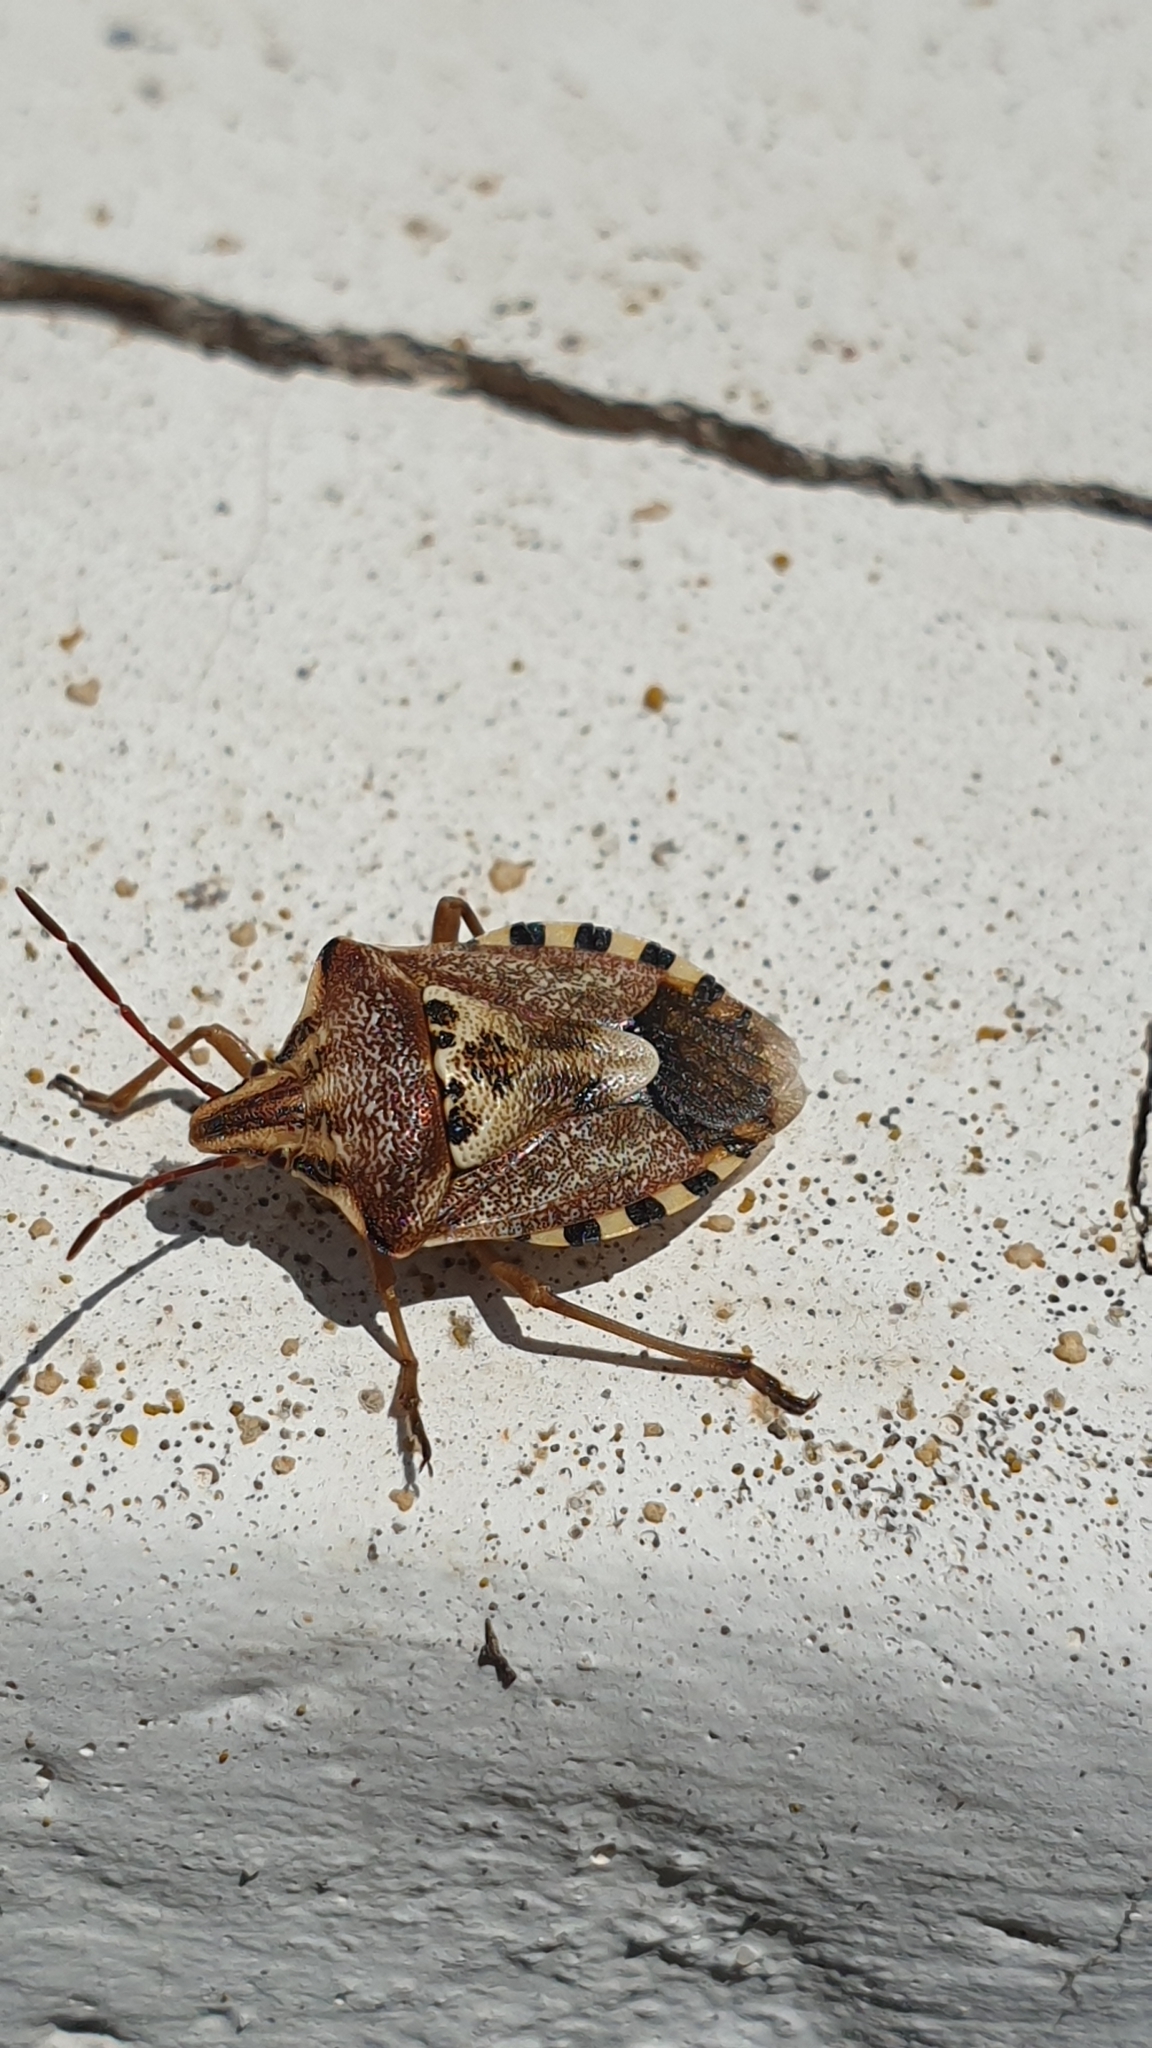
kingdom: Animalia
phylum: Arthropoda
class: Insecta
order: Hemiptera
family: Miridae
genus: Orthops
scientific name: Orthops kalmii
